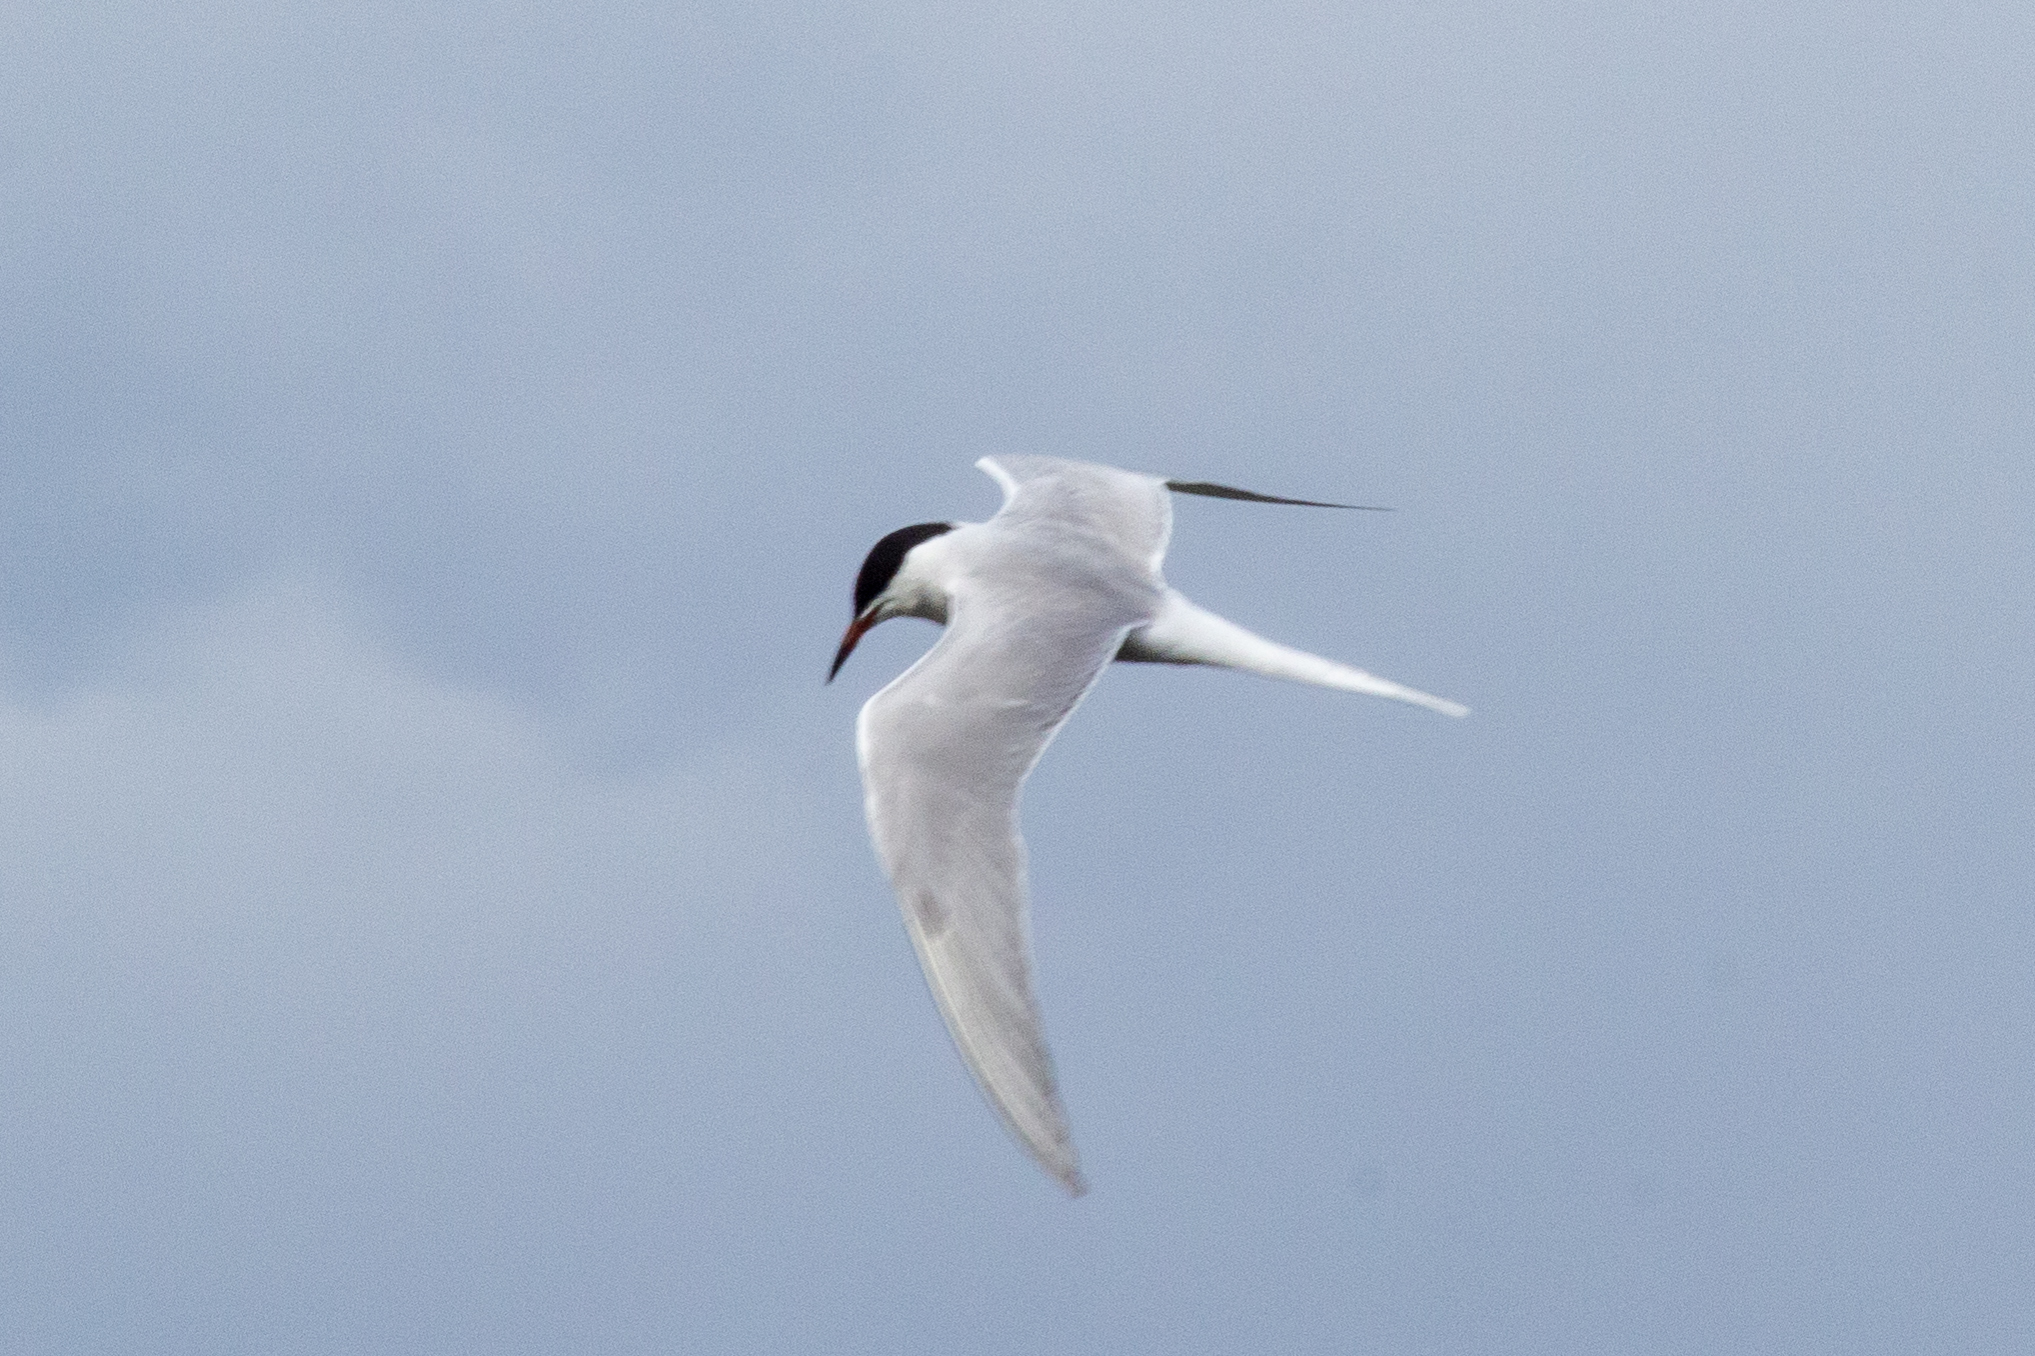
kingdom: Animalia
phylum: Chordata
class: Aves
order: Charadriiformes
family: Laridae
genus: Sterna
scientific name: Sterna hirundo
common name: Common tern
